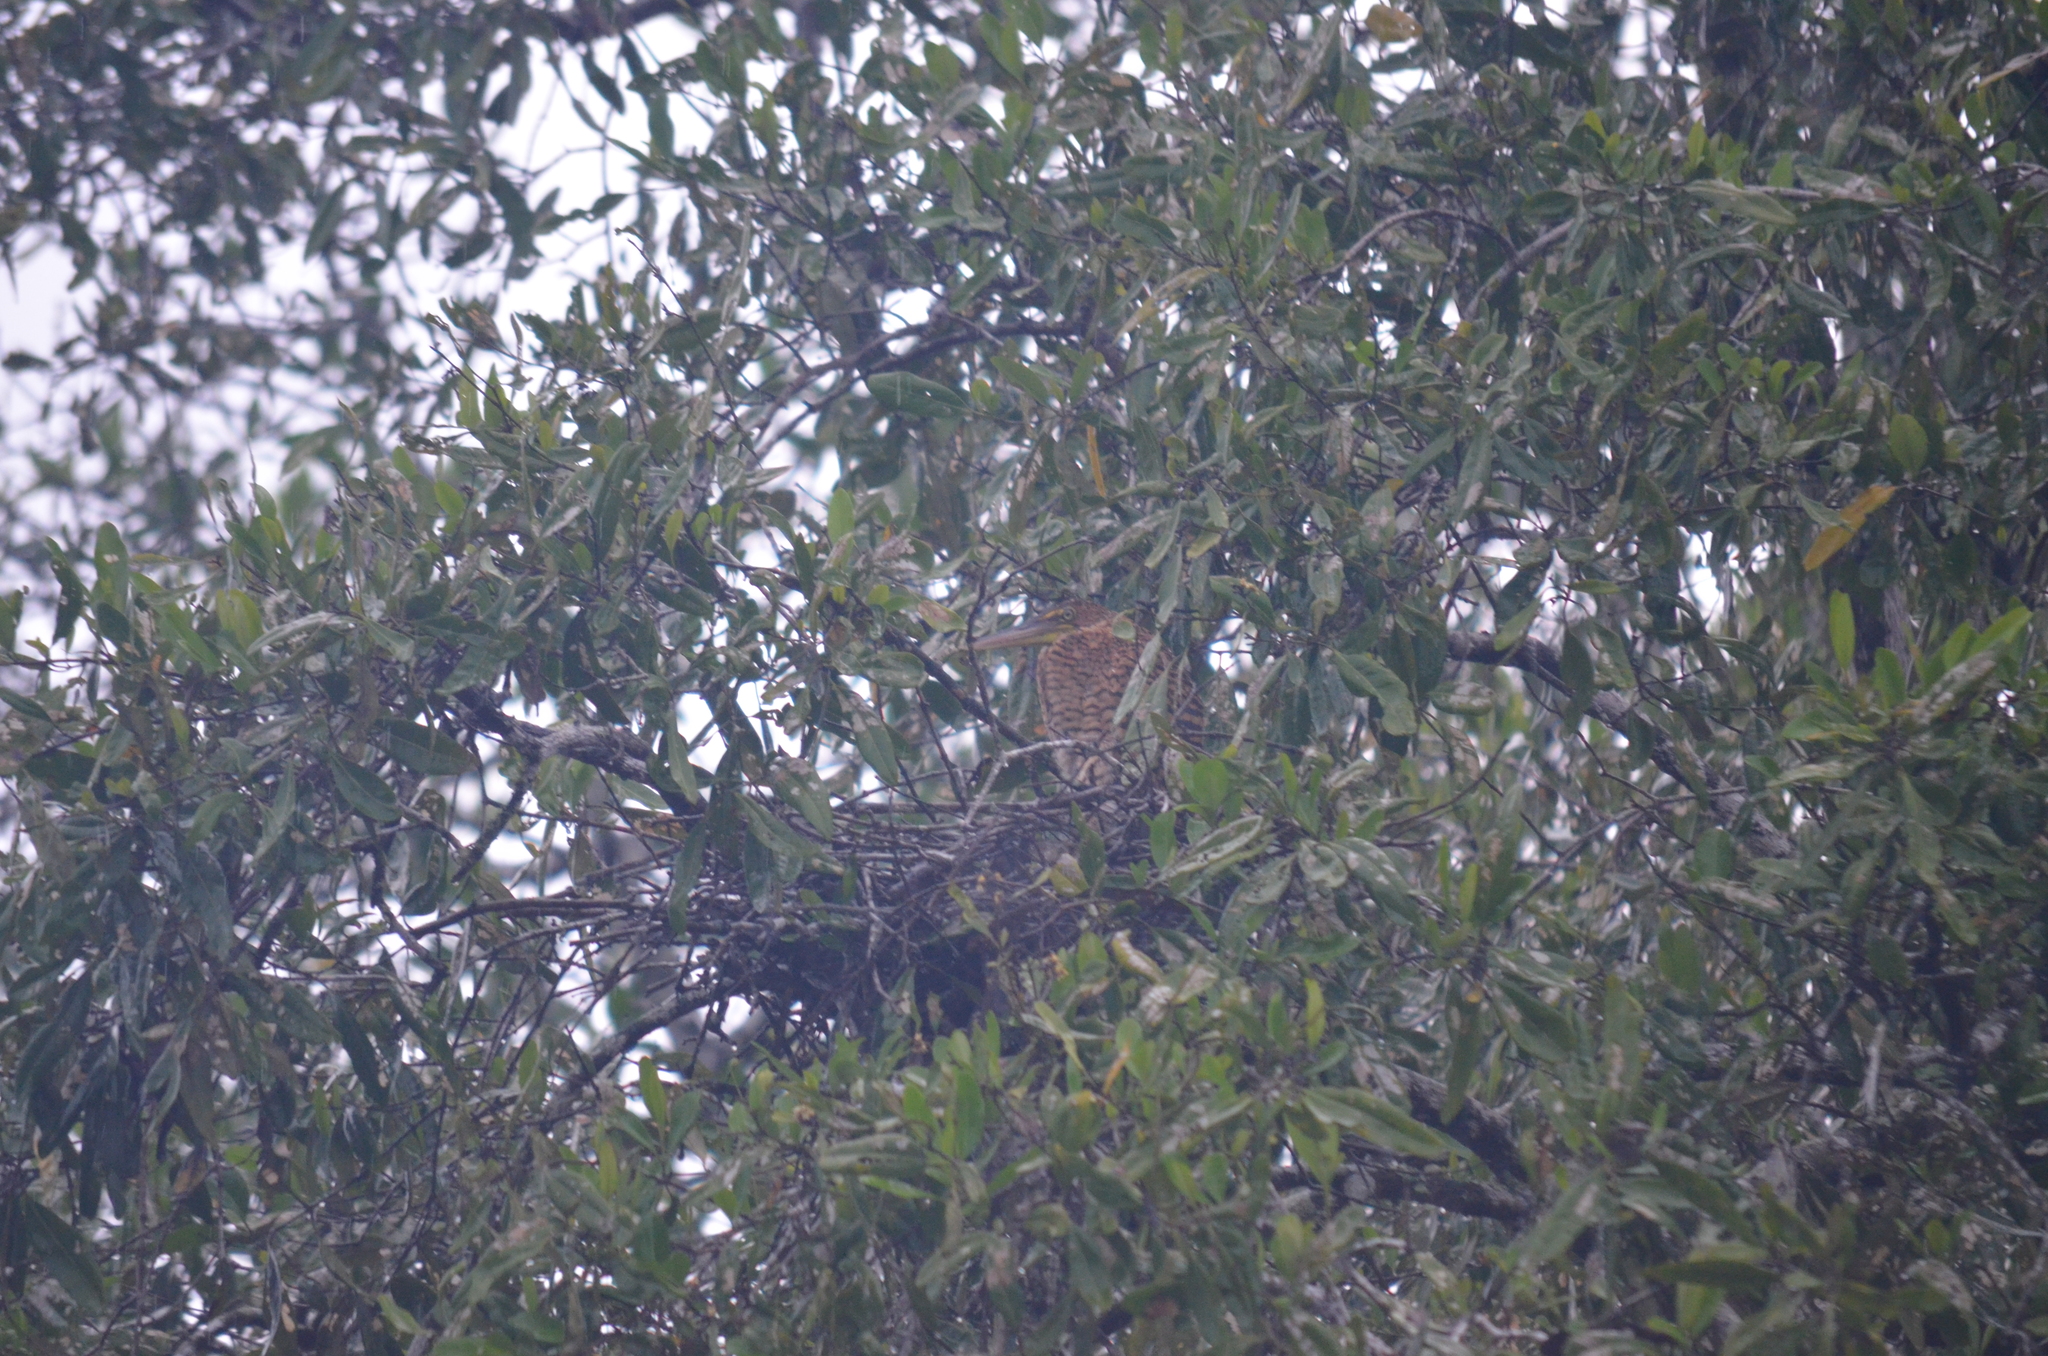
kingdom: Animalia
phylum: Chordata
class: Aves
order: Pelecaniformes
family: Ardeidae
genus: Tigrisoma
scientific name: Tigrisoma mexicanum
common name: Bare-throated tiger-heron
